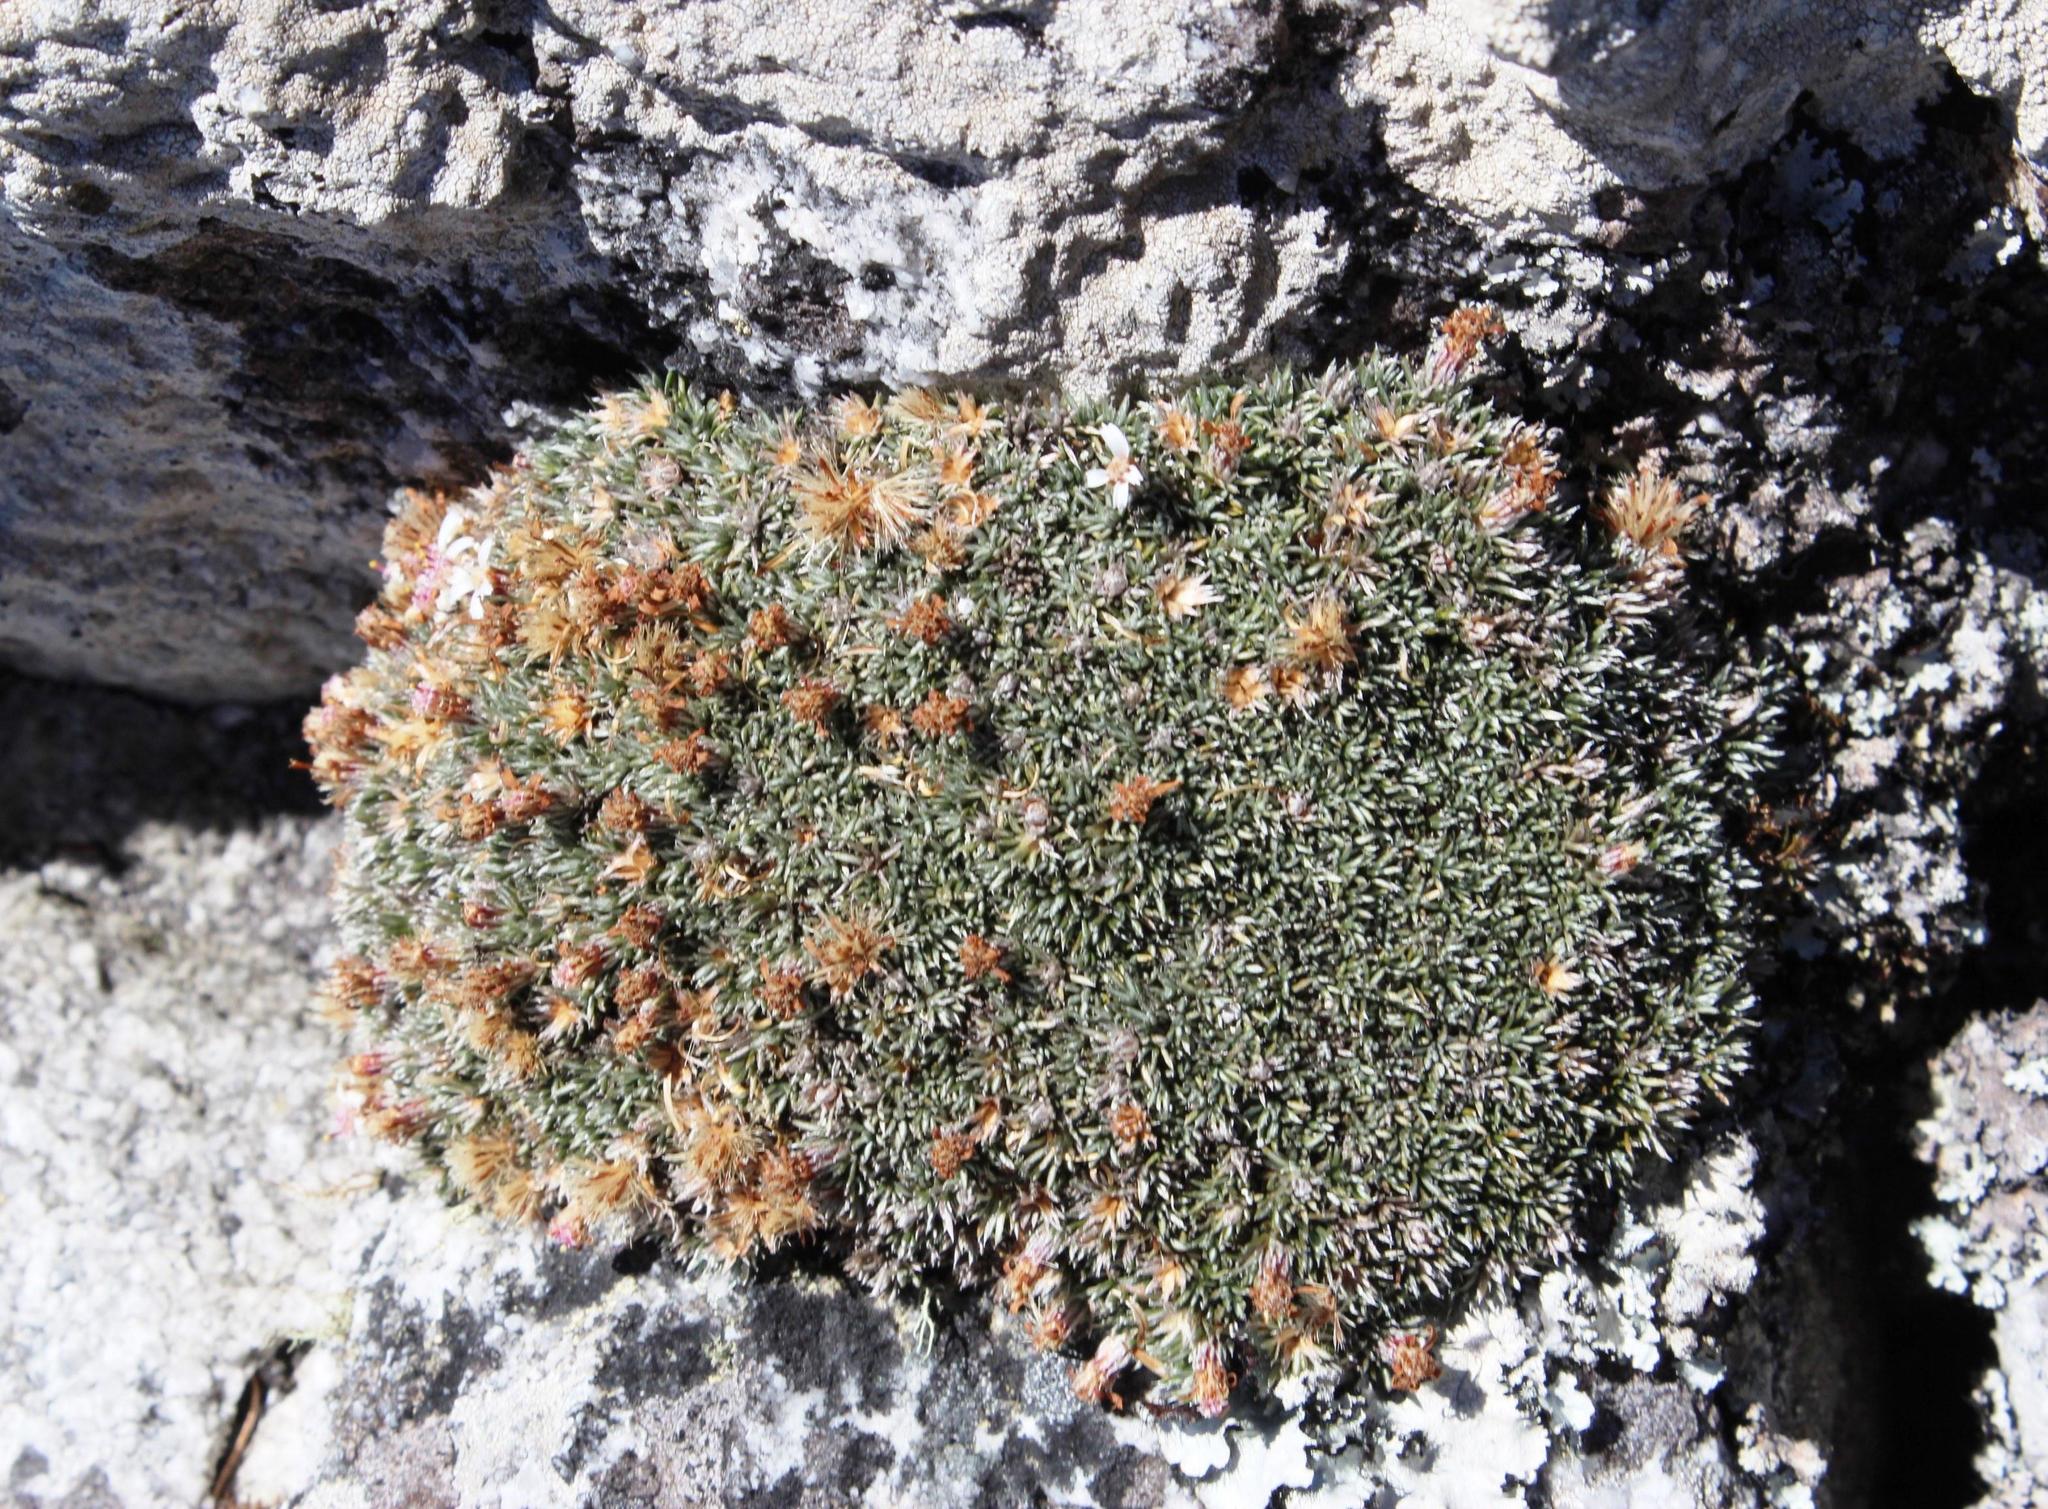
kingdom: Plantae
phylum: Tracheophyta
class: Magnoliopsida
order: Asterales
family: Asteraceae
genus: Muscosomorphe
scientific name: Muscosomorphe aretioides
